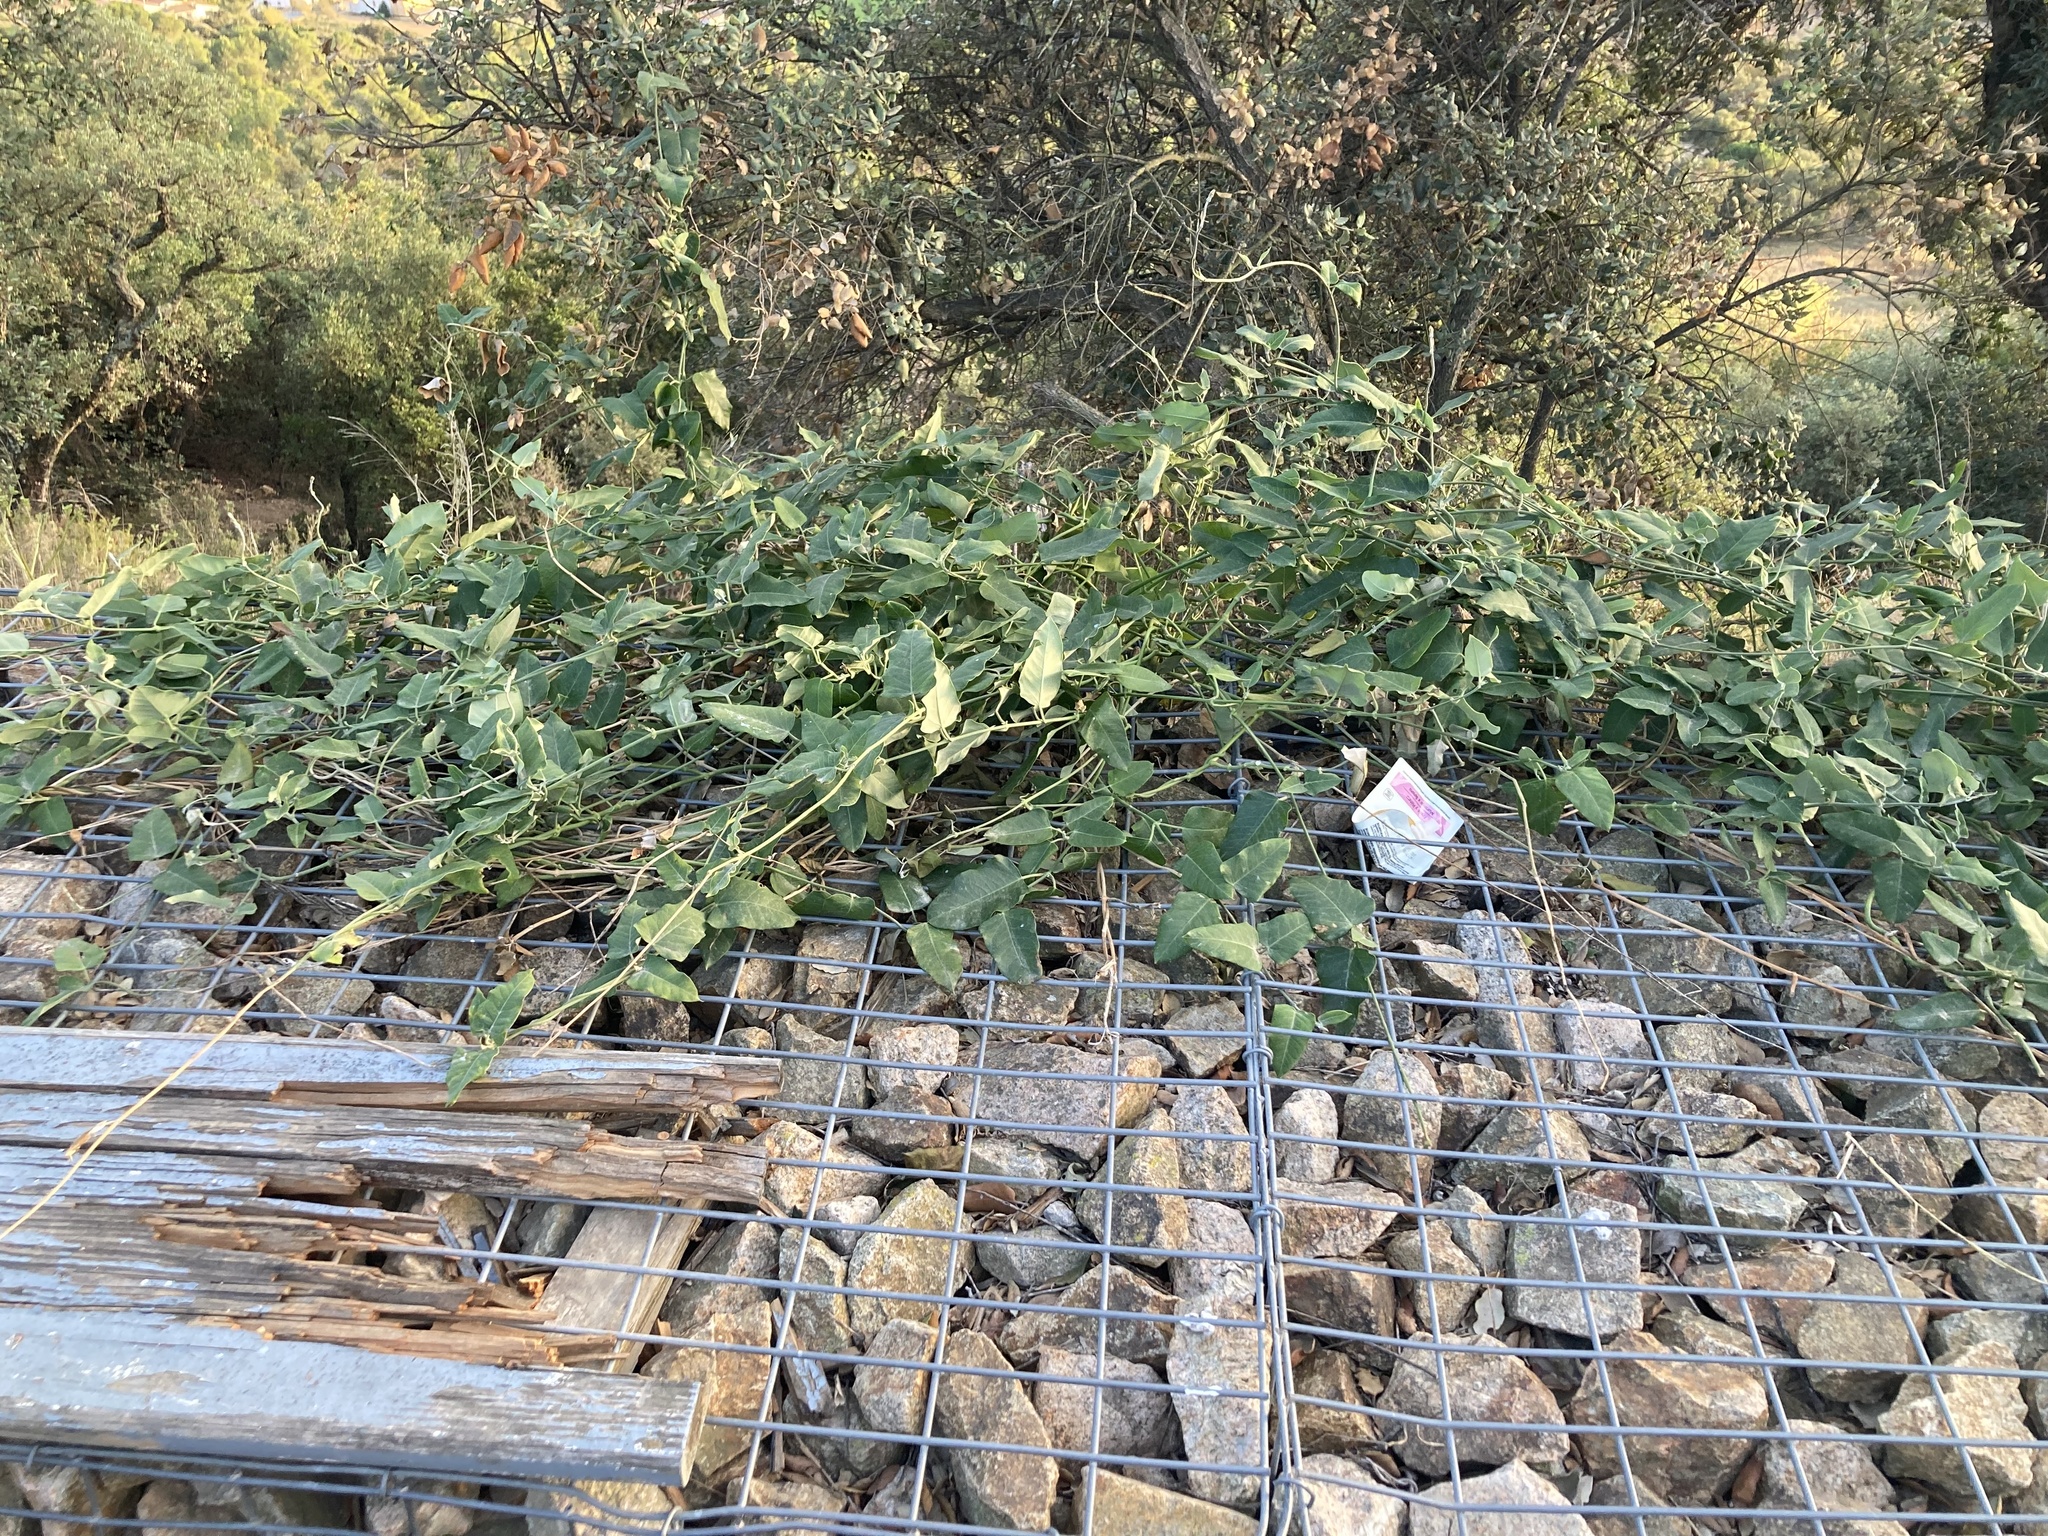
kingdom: Plantae
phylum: Tracheophyta
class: Magnoliopsida
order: Gentianales
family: Apocynaceae
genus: Araujia
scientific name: Araujia sericifera
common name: White bladderflower
